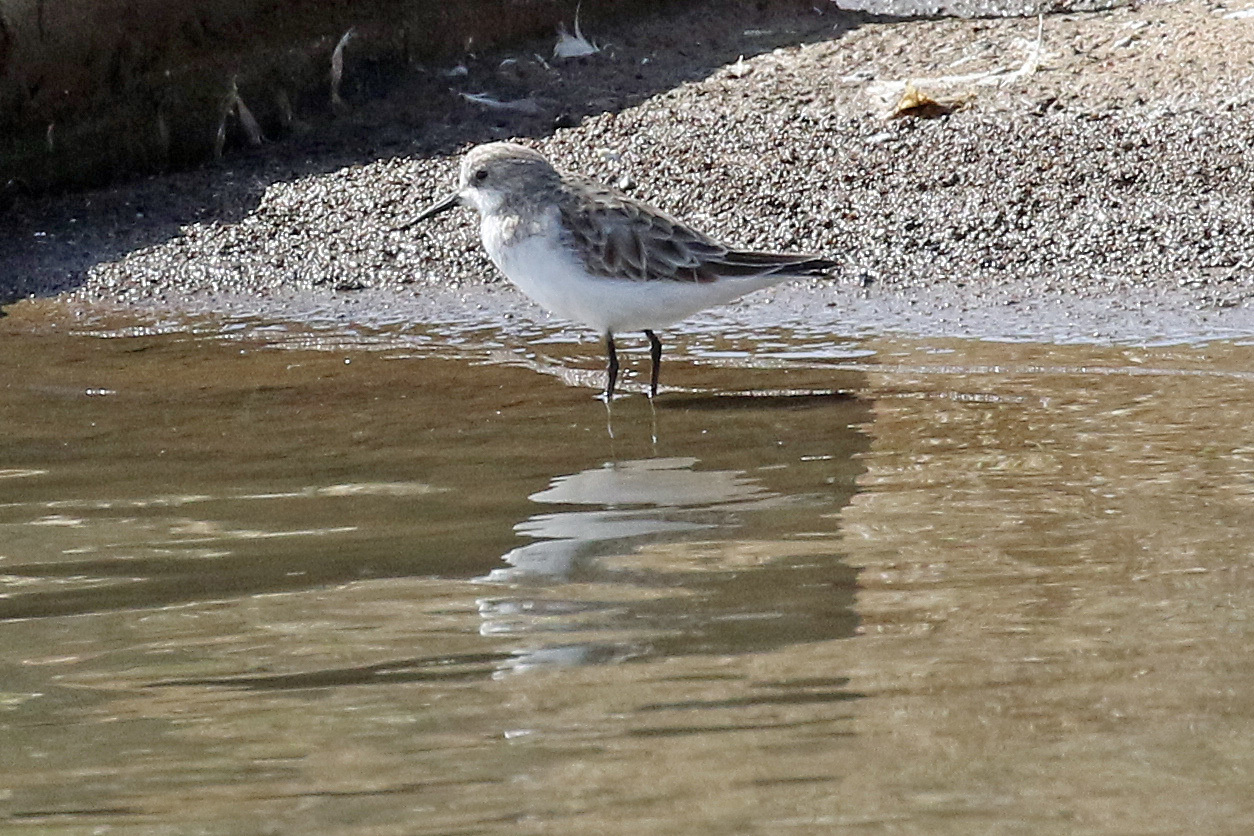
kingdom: Animalia
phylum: Chordata
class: Aves
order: Charadriiformes
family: Scolopacidae
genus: Calidris
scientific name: Calidris minuta
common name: Little stint
